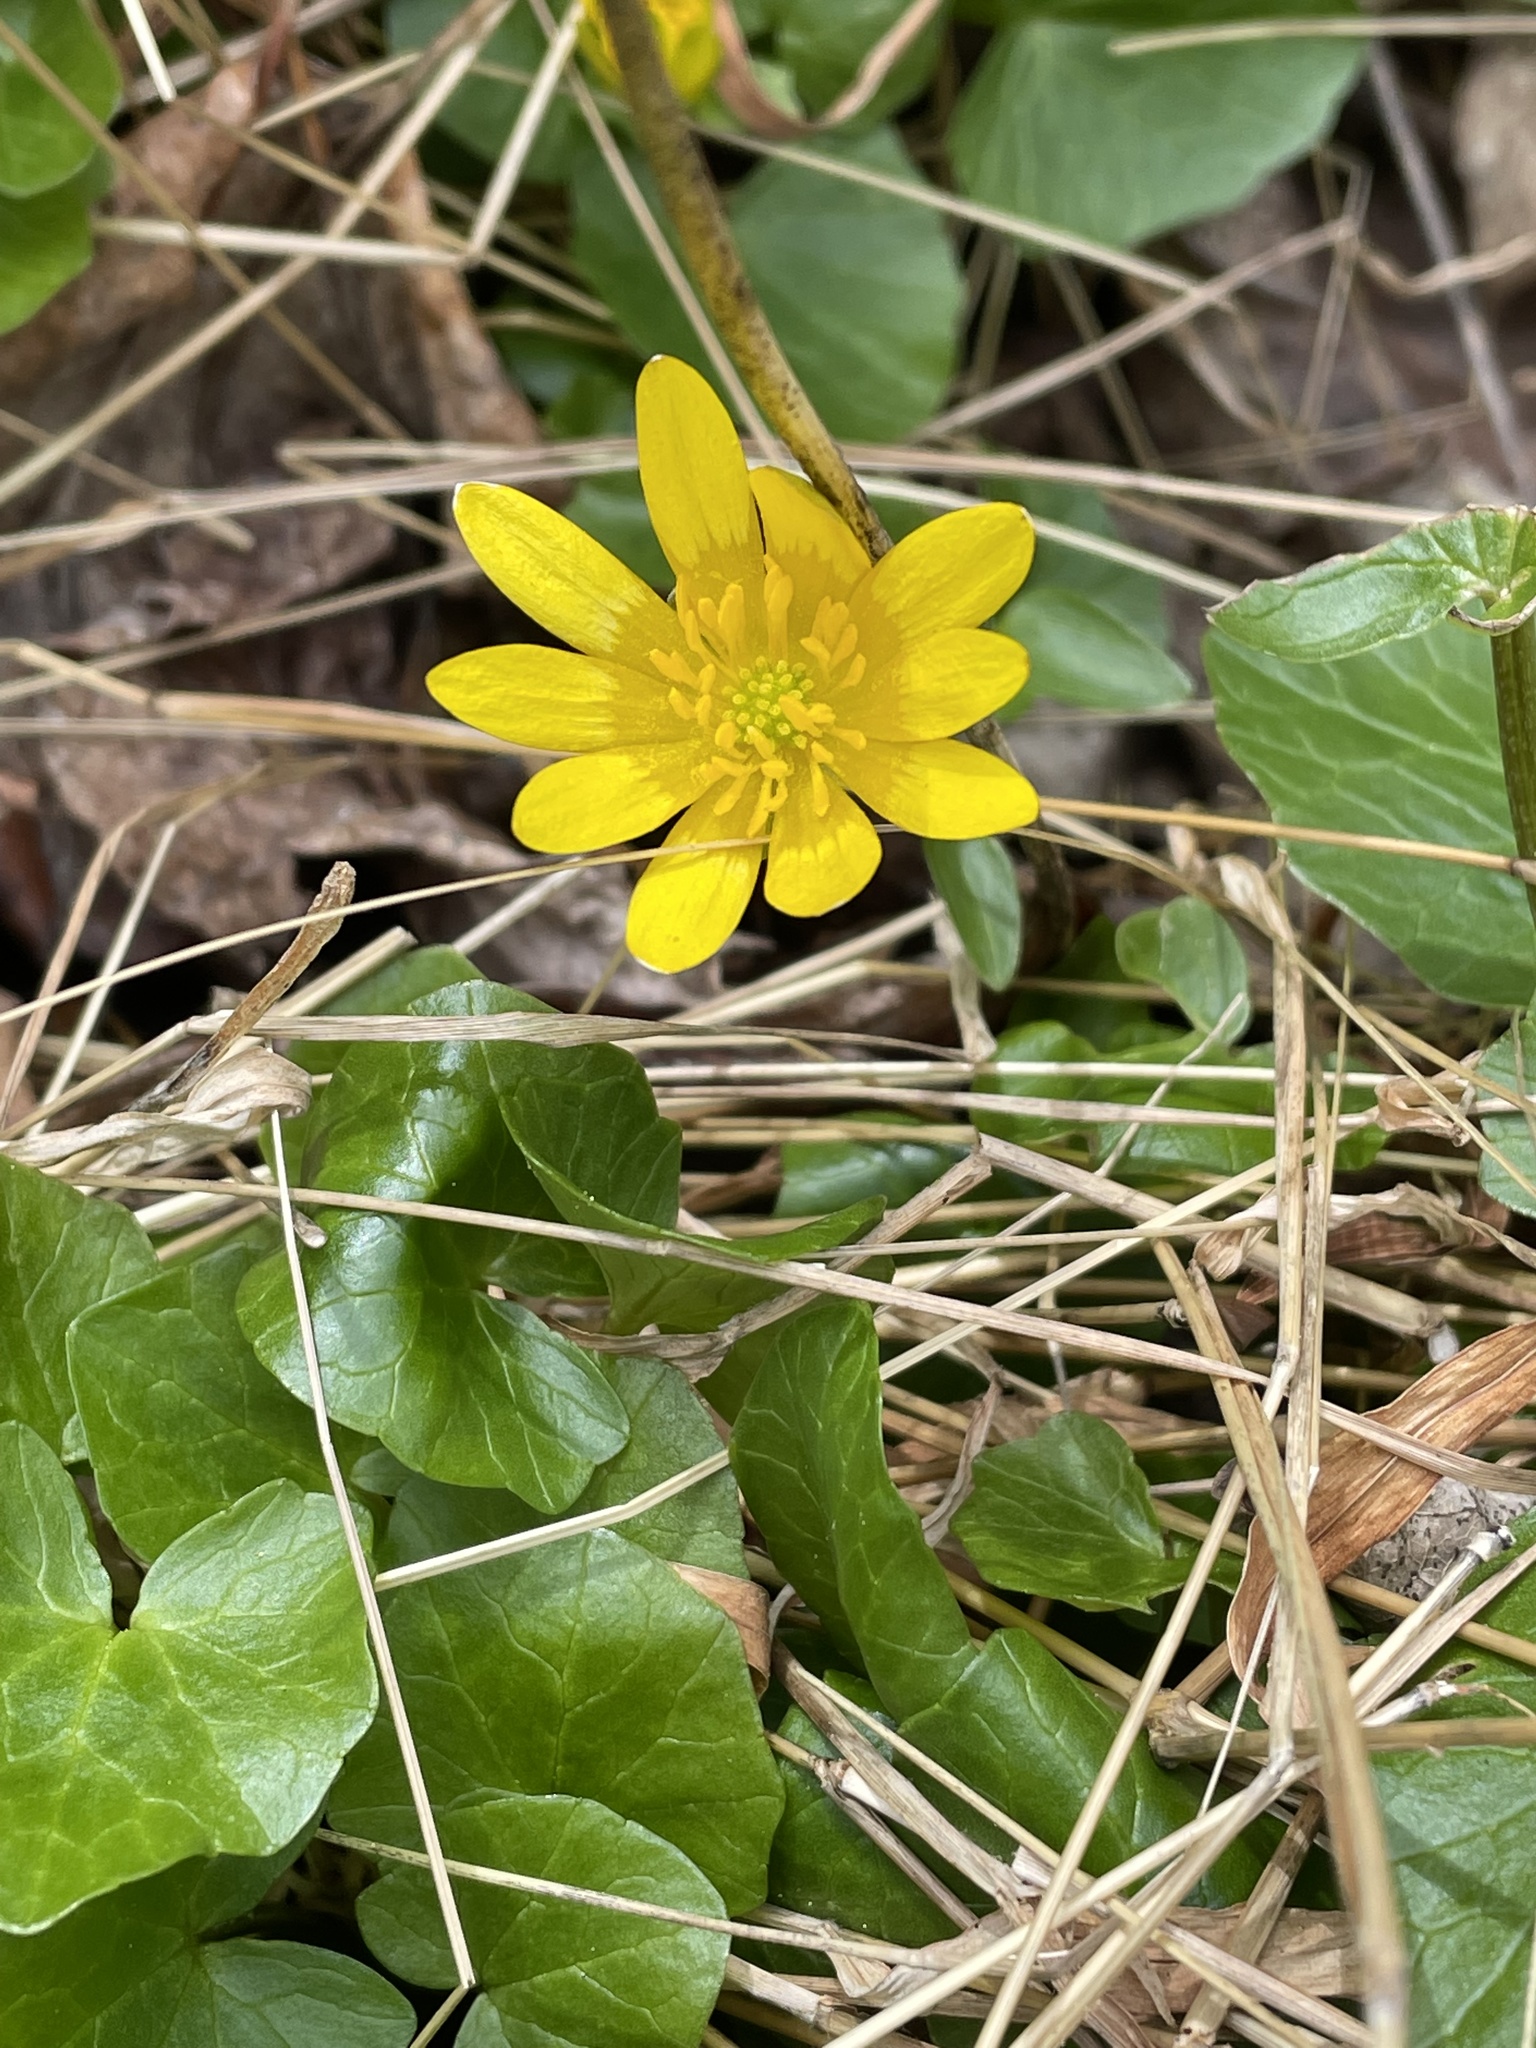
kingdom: Plantae
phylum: Tracheophyta
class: Magnoliopsida
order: Ranunculales
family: Ranunculaceae
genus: Ficaria
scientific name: Ficaria verna
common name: Lesser celandine
